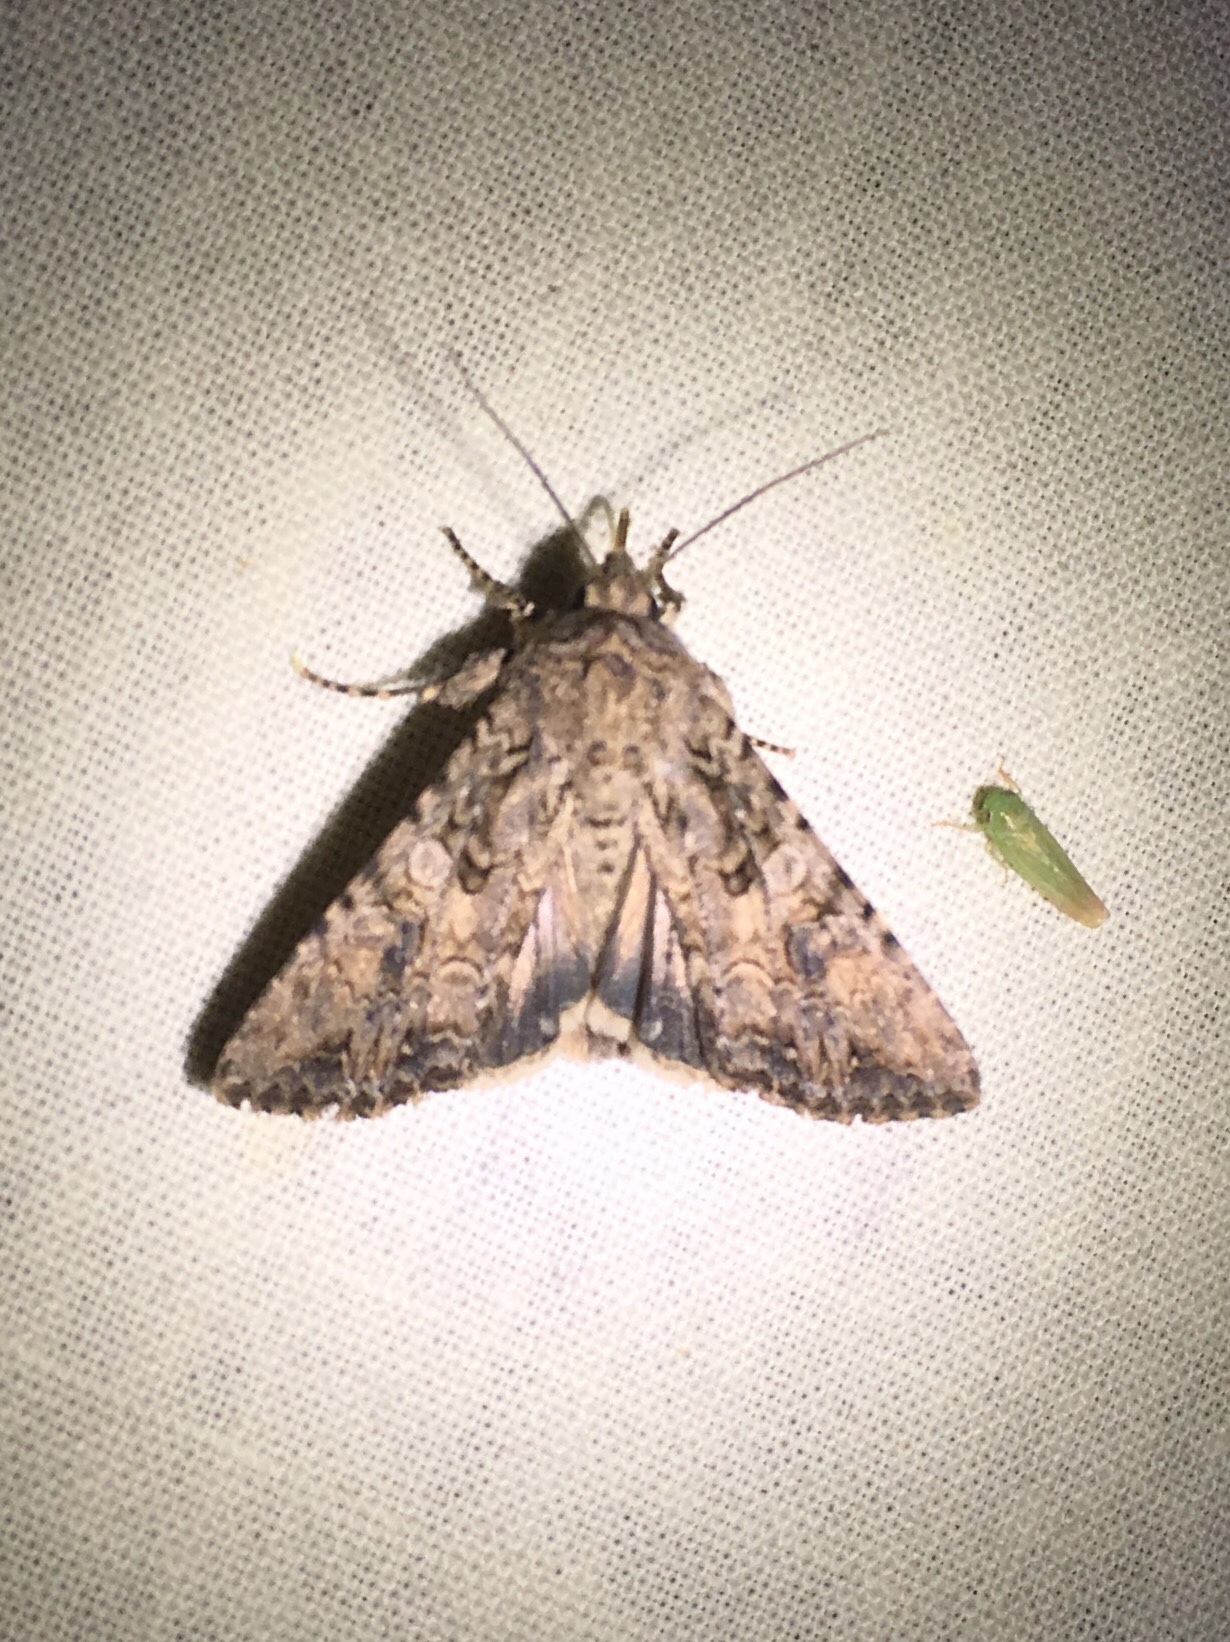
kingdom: Animalia
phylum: Arthropoda
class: Insecta
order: Lepidoptera
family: Noctuidae
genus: Anarta
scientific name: Anarta trifolii
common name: Clover cutworm moth
